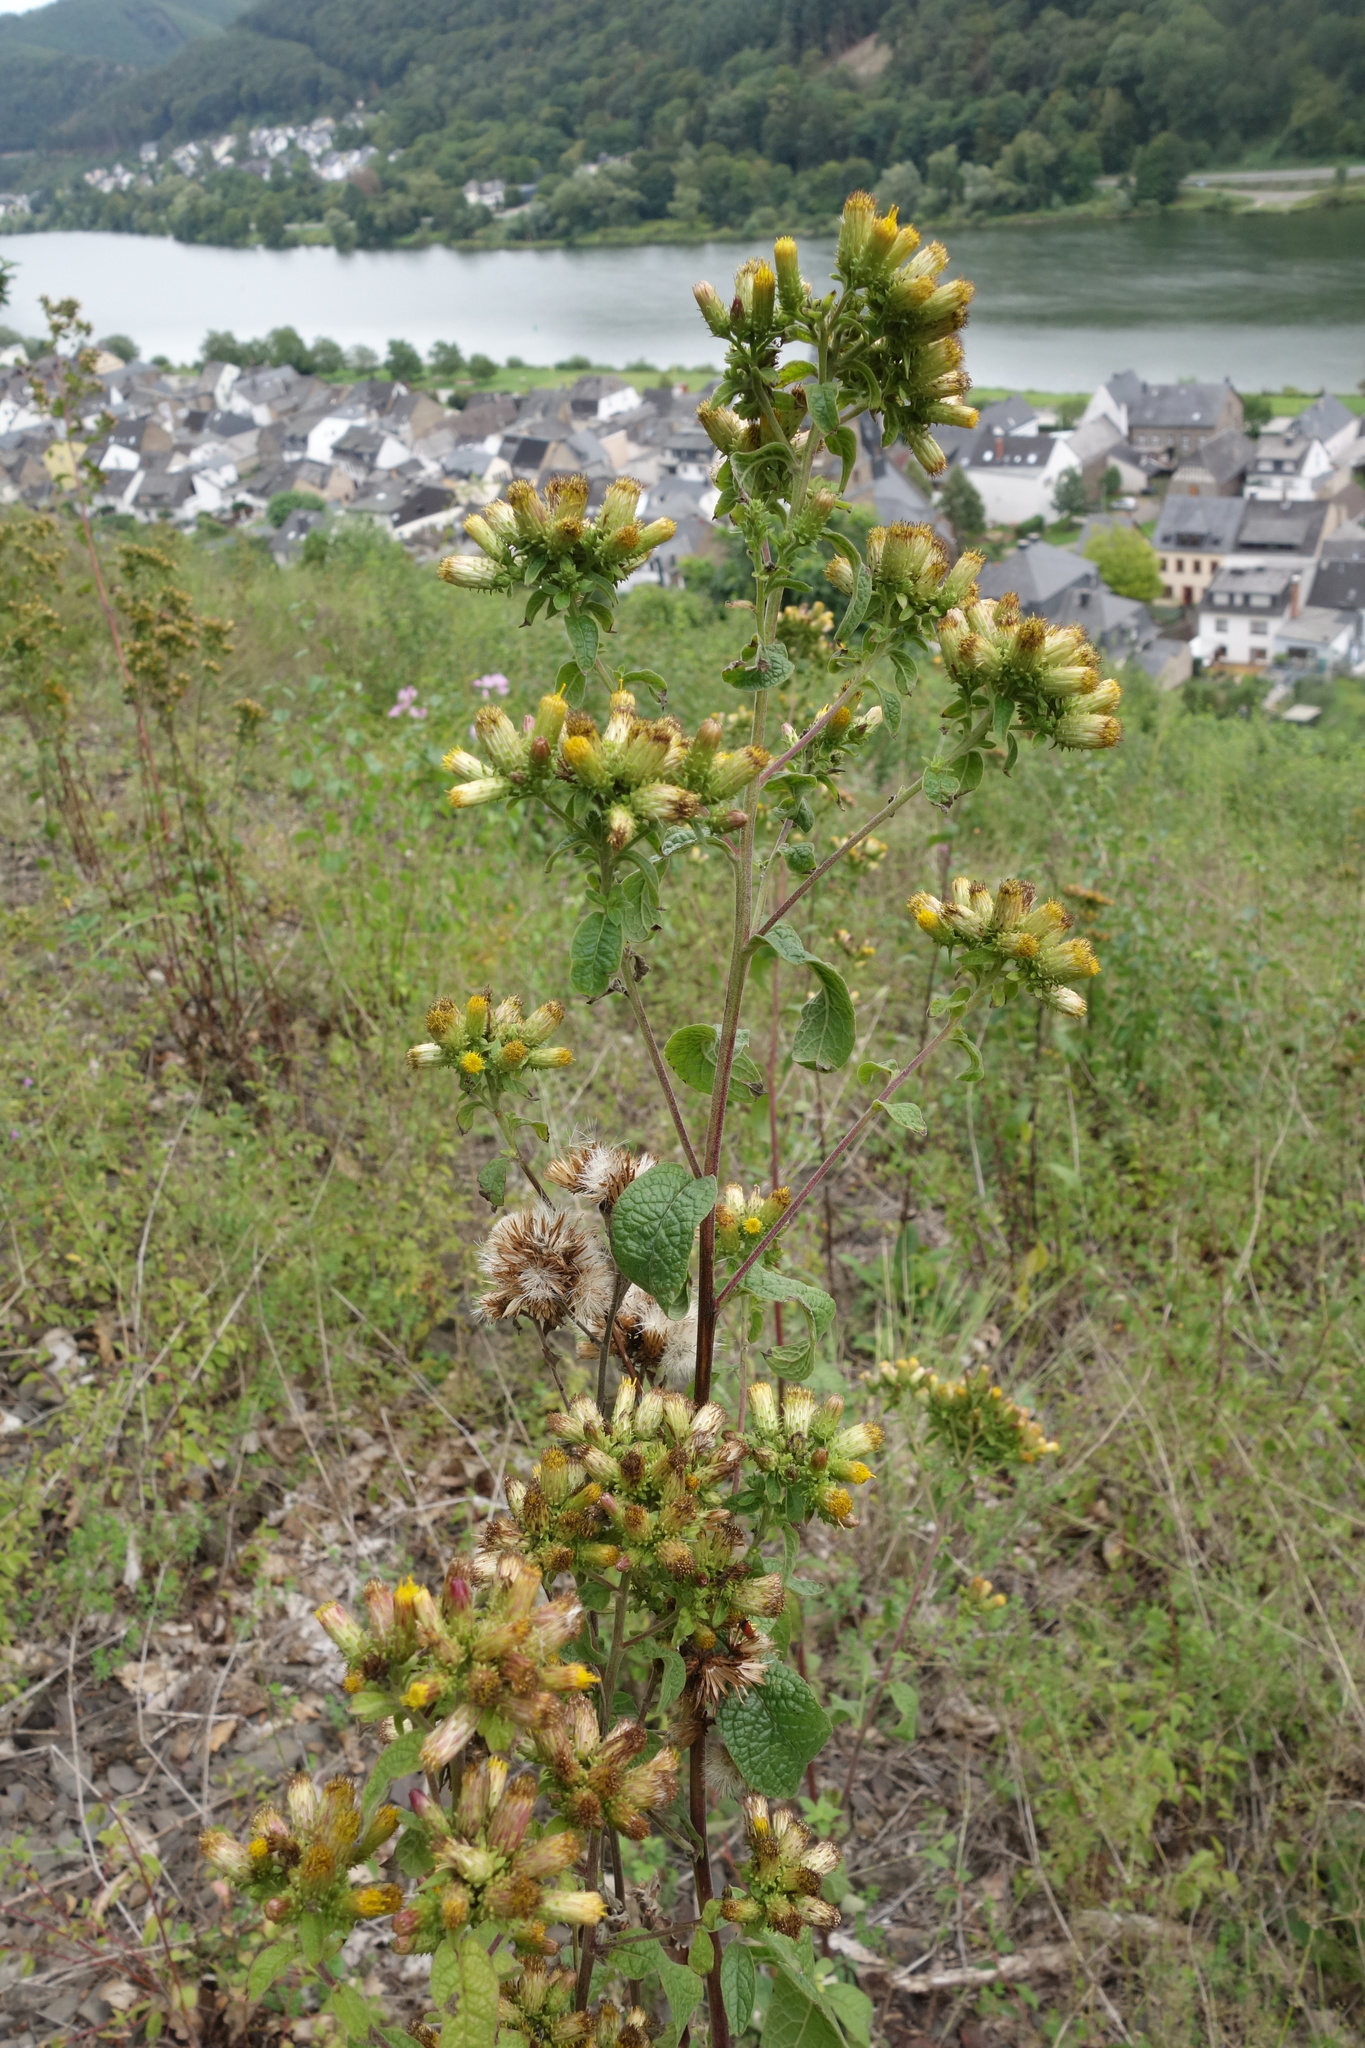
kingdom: Plantae
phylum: Tracheophyta
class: Magnoliopsida
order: Asterales
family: Asteraceae
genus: Pentanema
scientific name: Pentanema squarrosum
